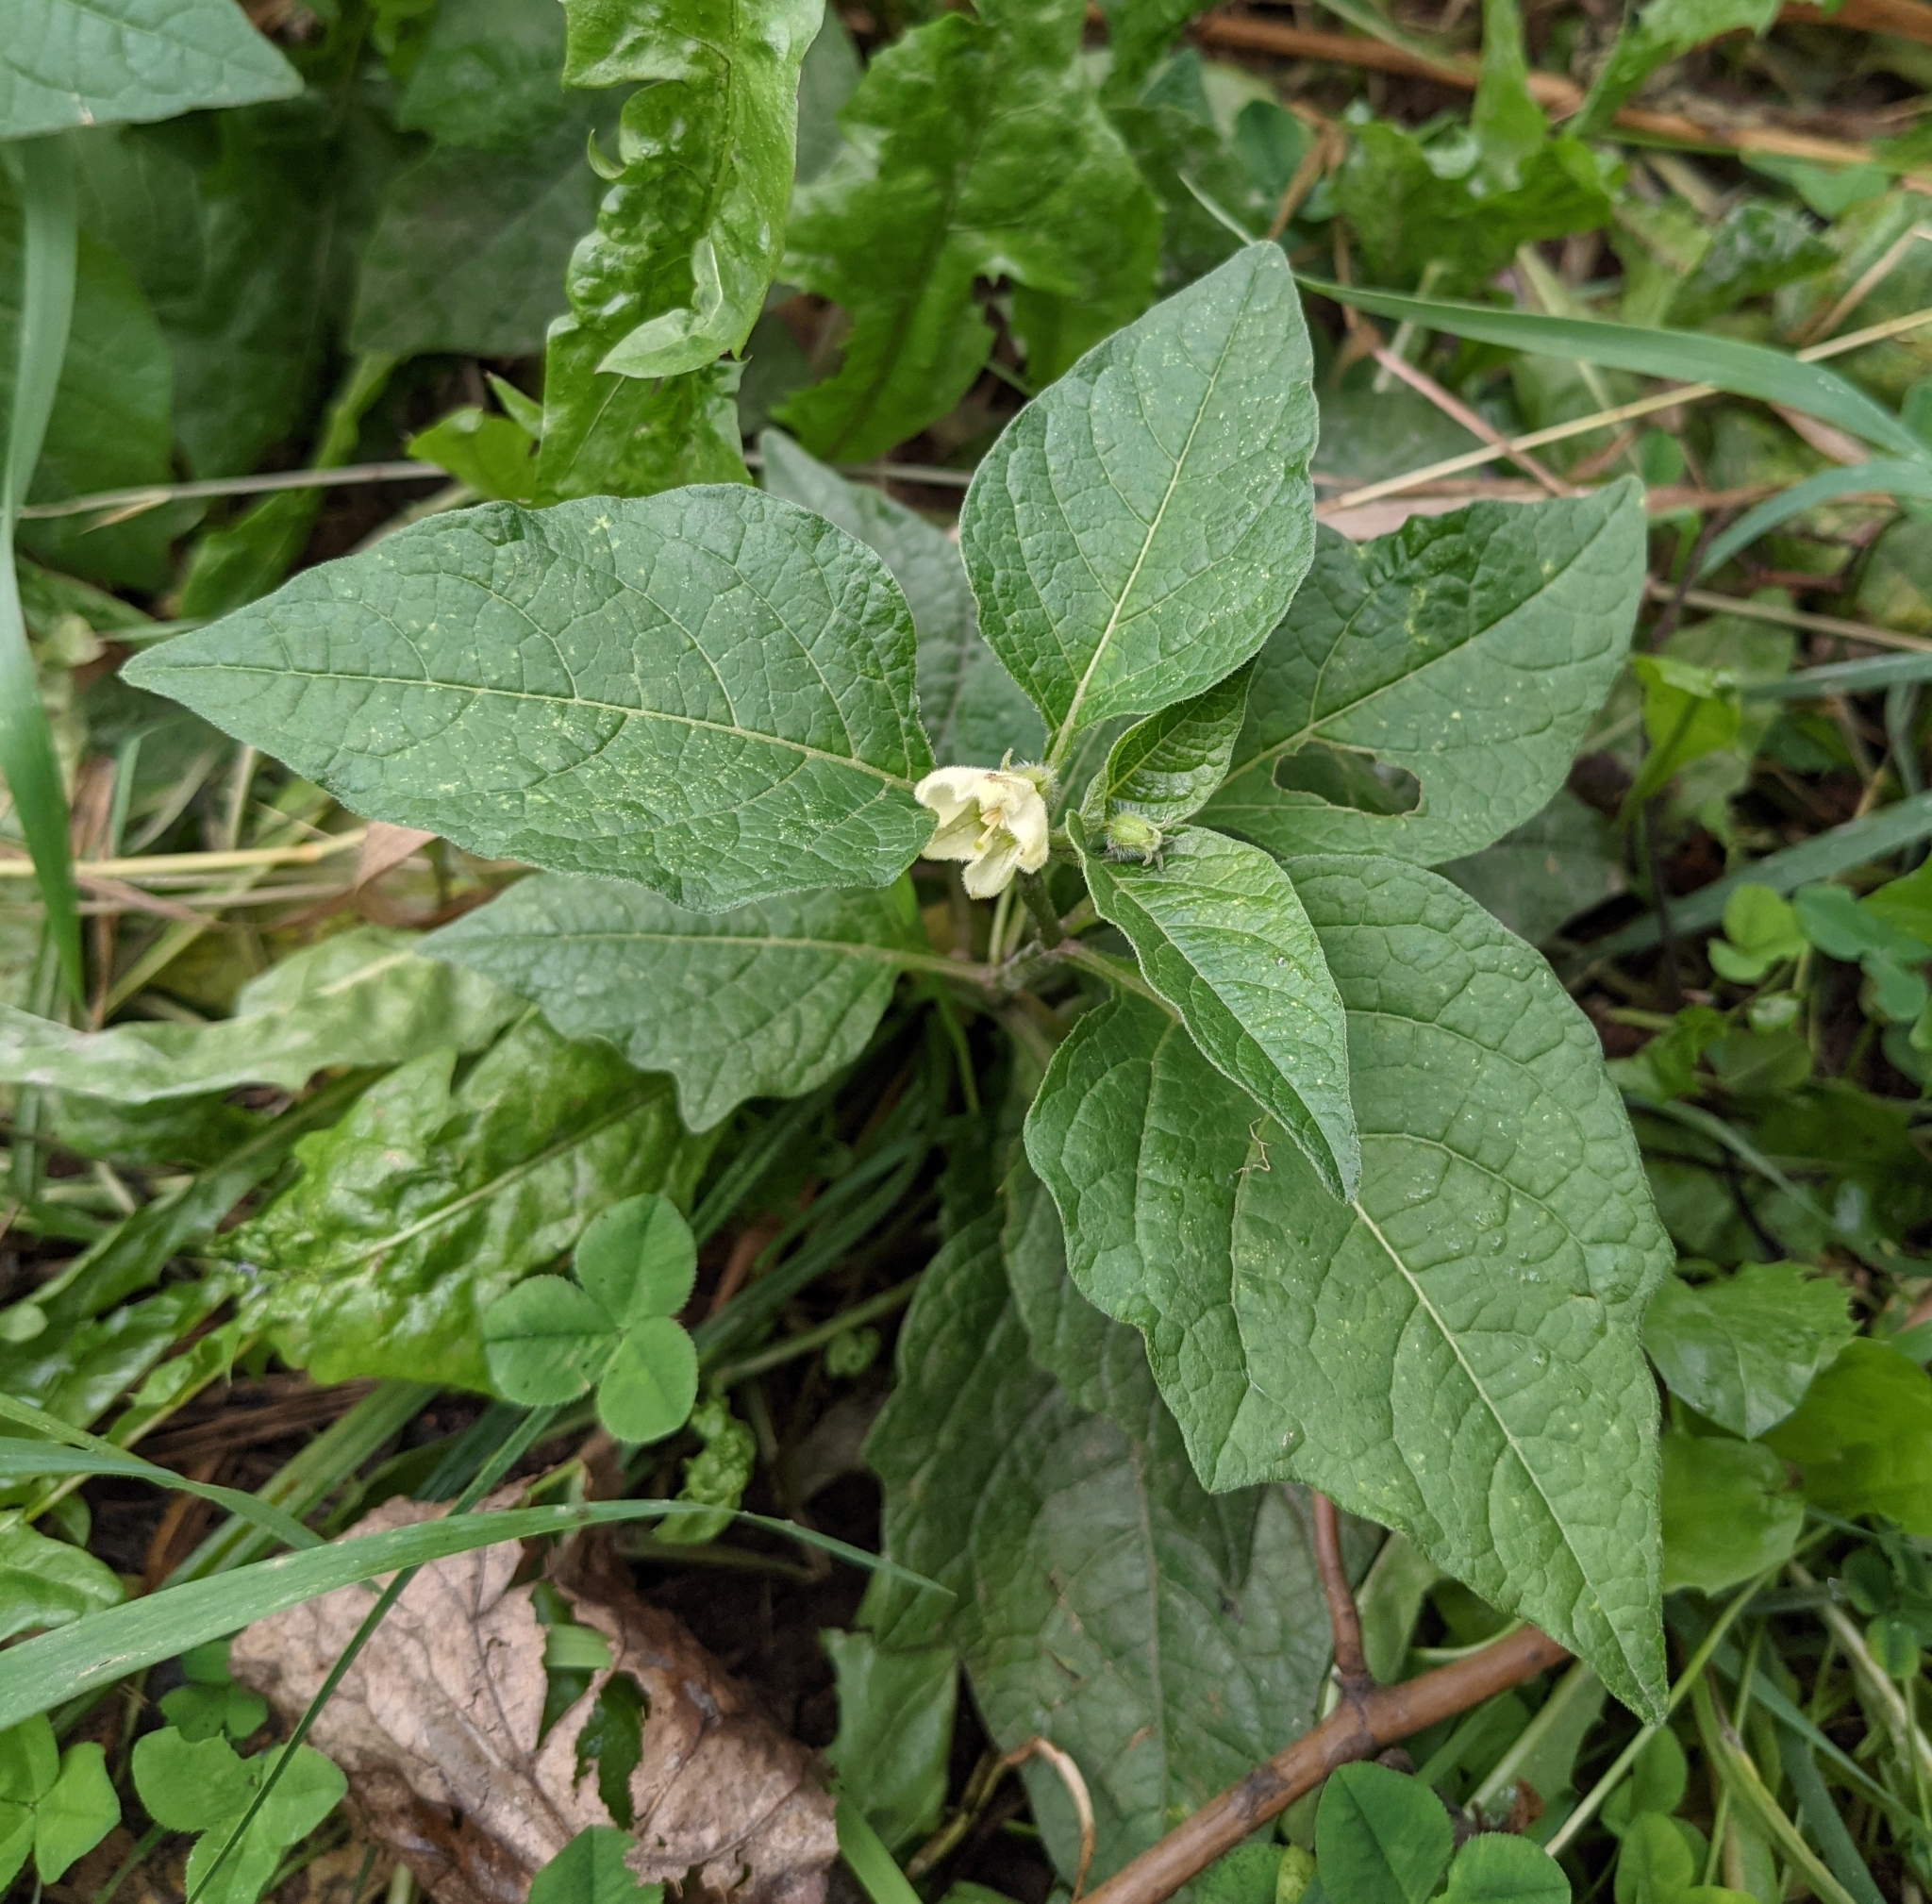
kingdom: Plantae
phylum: Tracheophyta
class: Magnoliopsida
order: Solanales
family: Solanaceae
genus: Alkekengi
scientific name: Alkekengi officinarum
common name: Japanese-lantern
